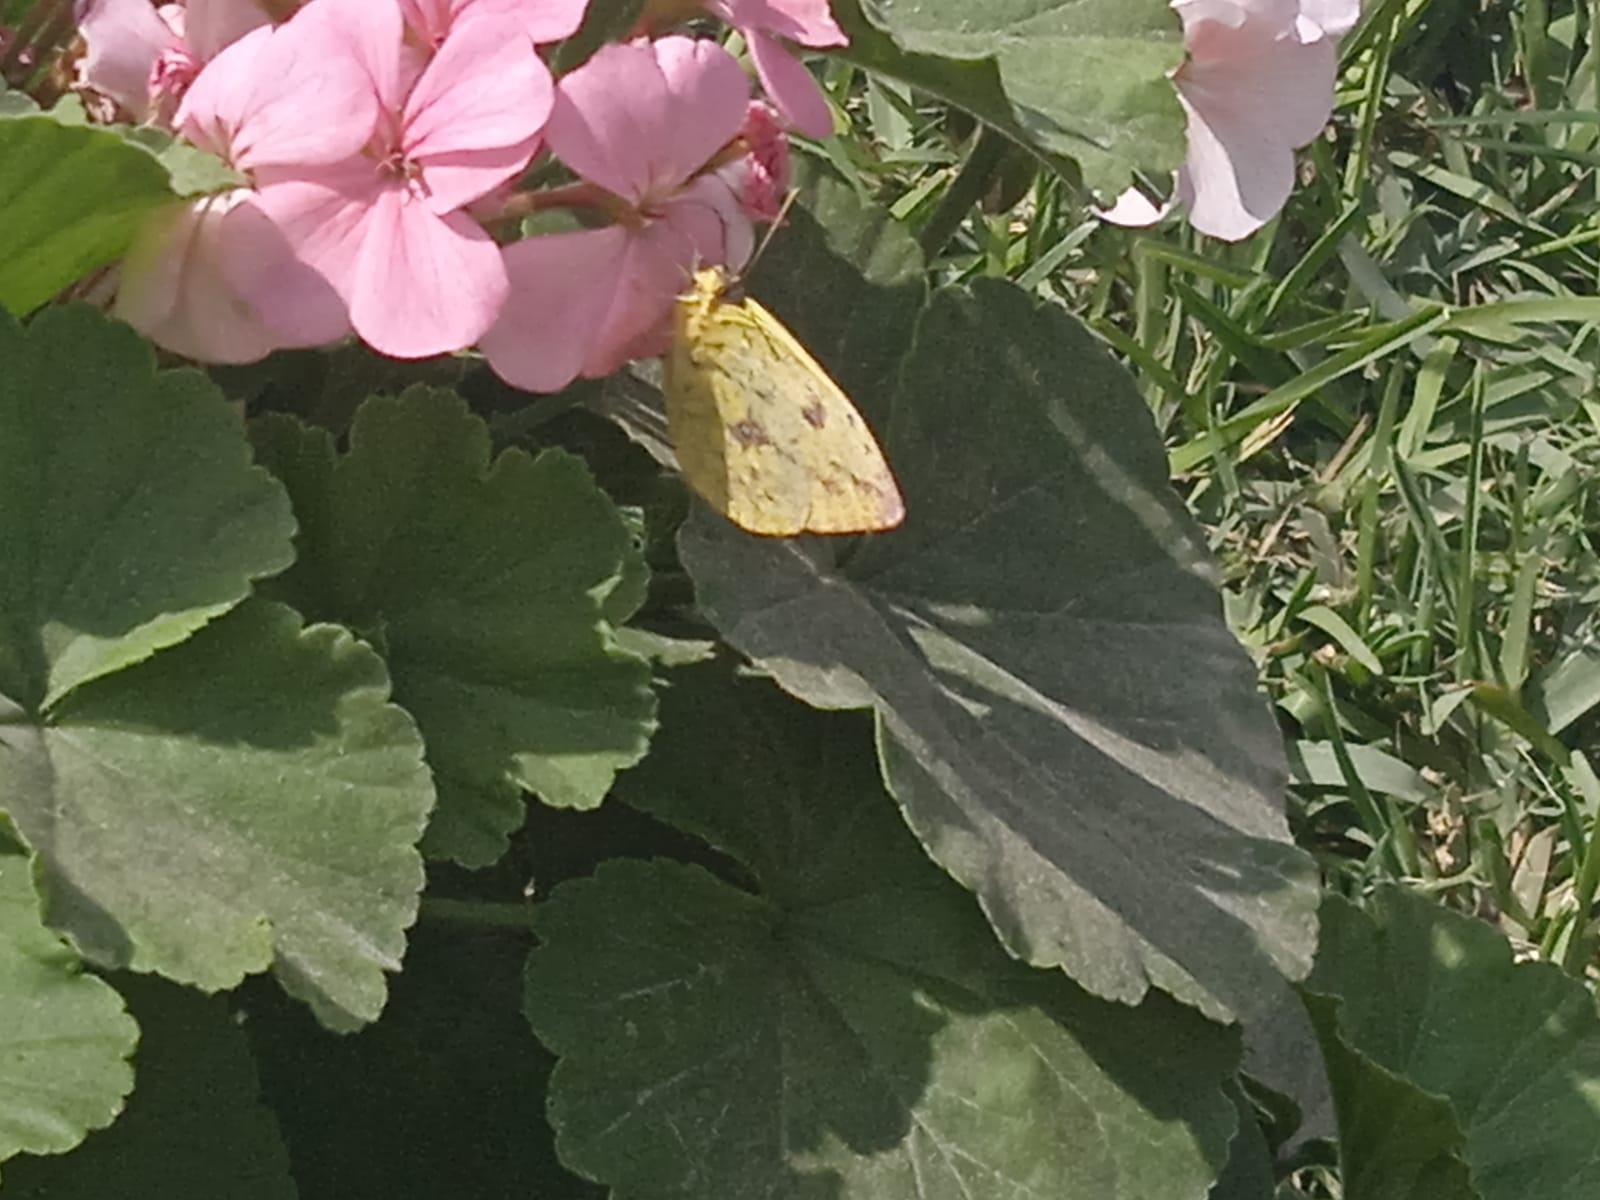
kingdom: Animalia
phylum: Arthropoda
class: Insecta
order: Lepidoptera
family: Pieridae
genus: Phoebis
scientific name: Phoebis argante
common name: Apricot sulphur
